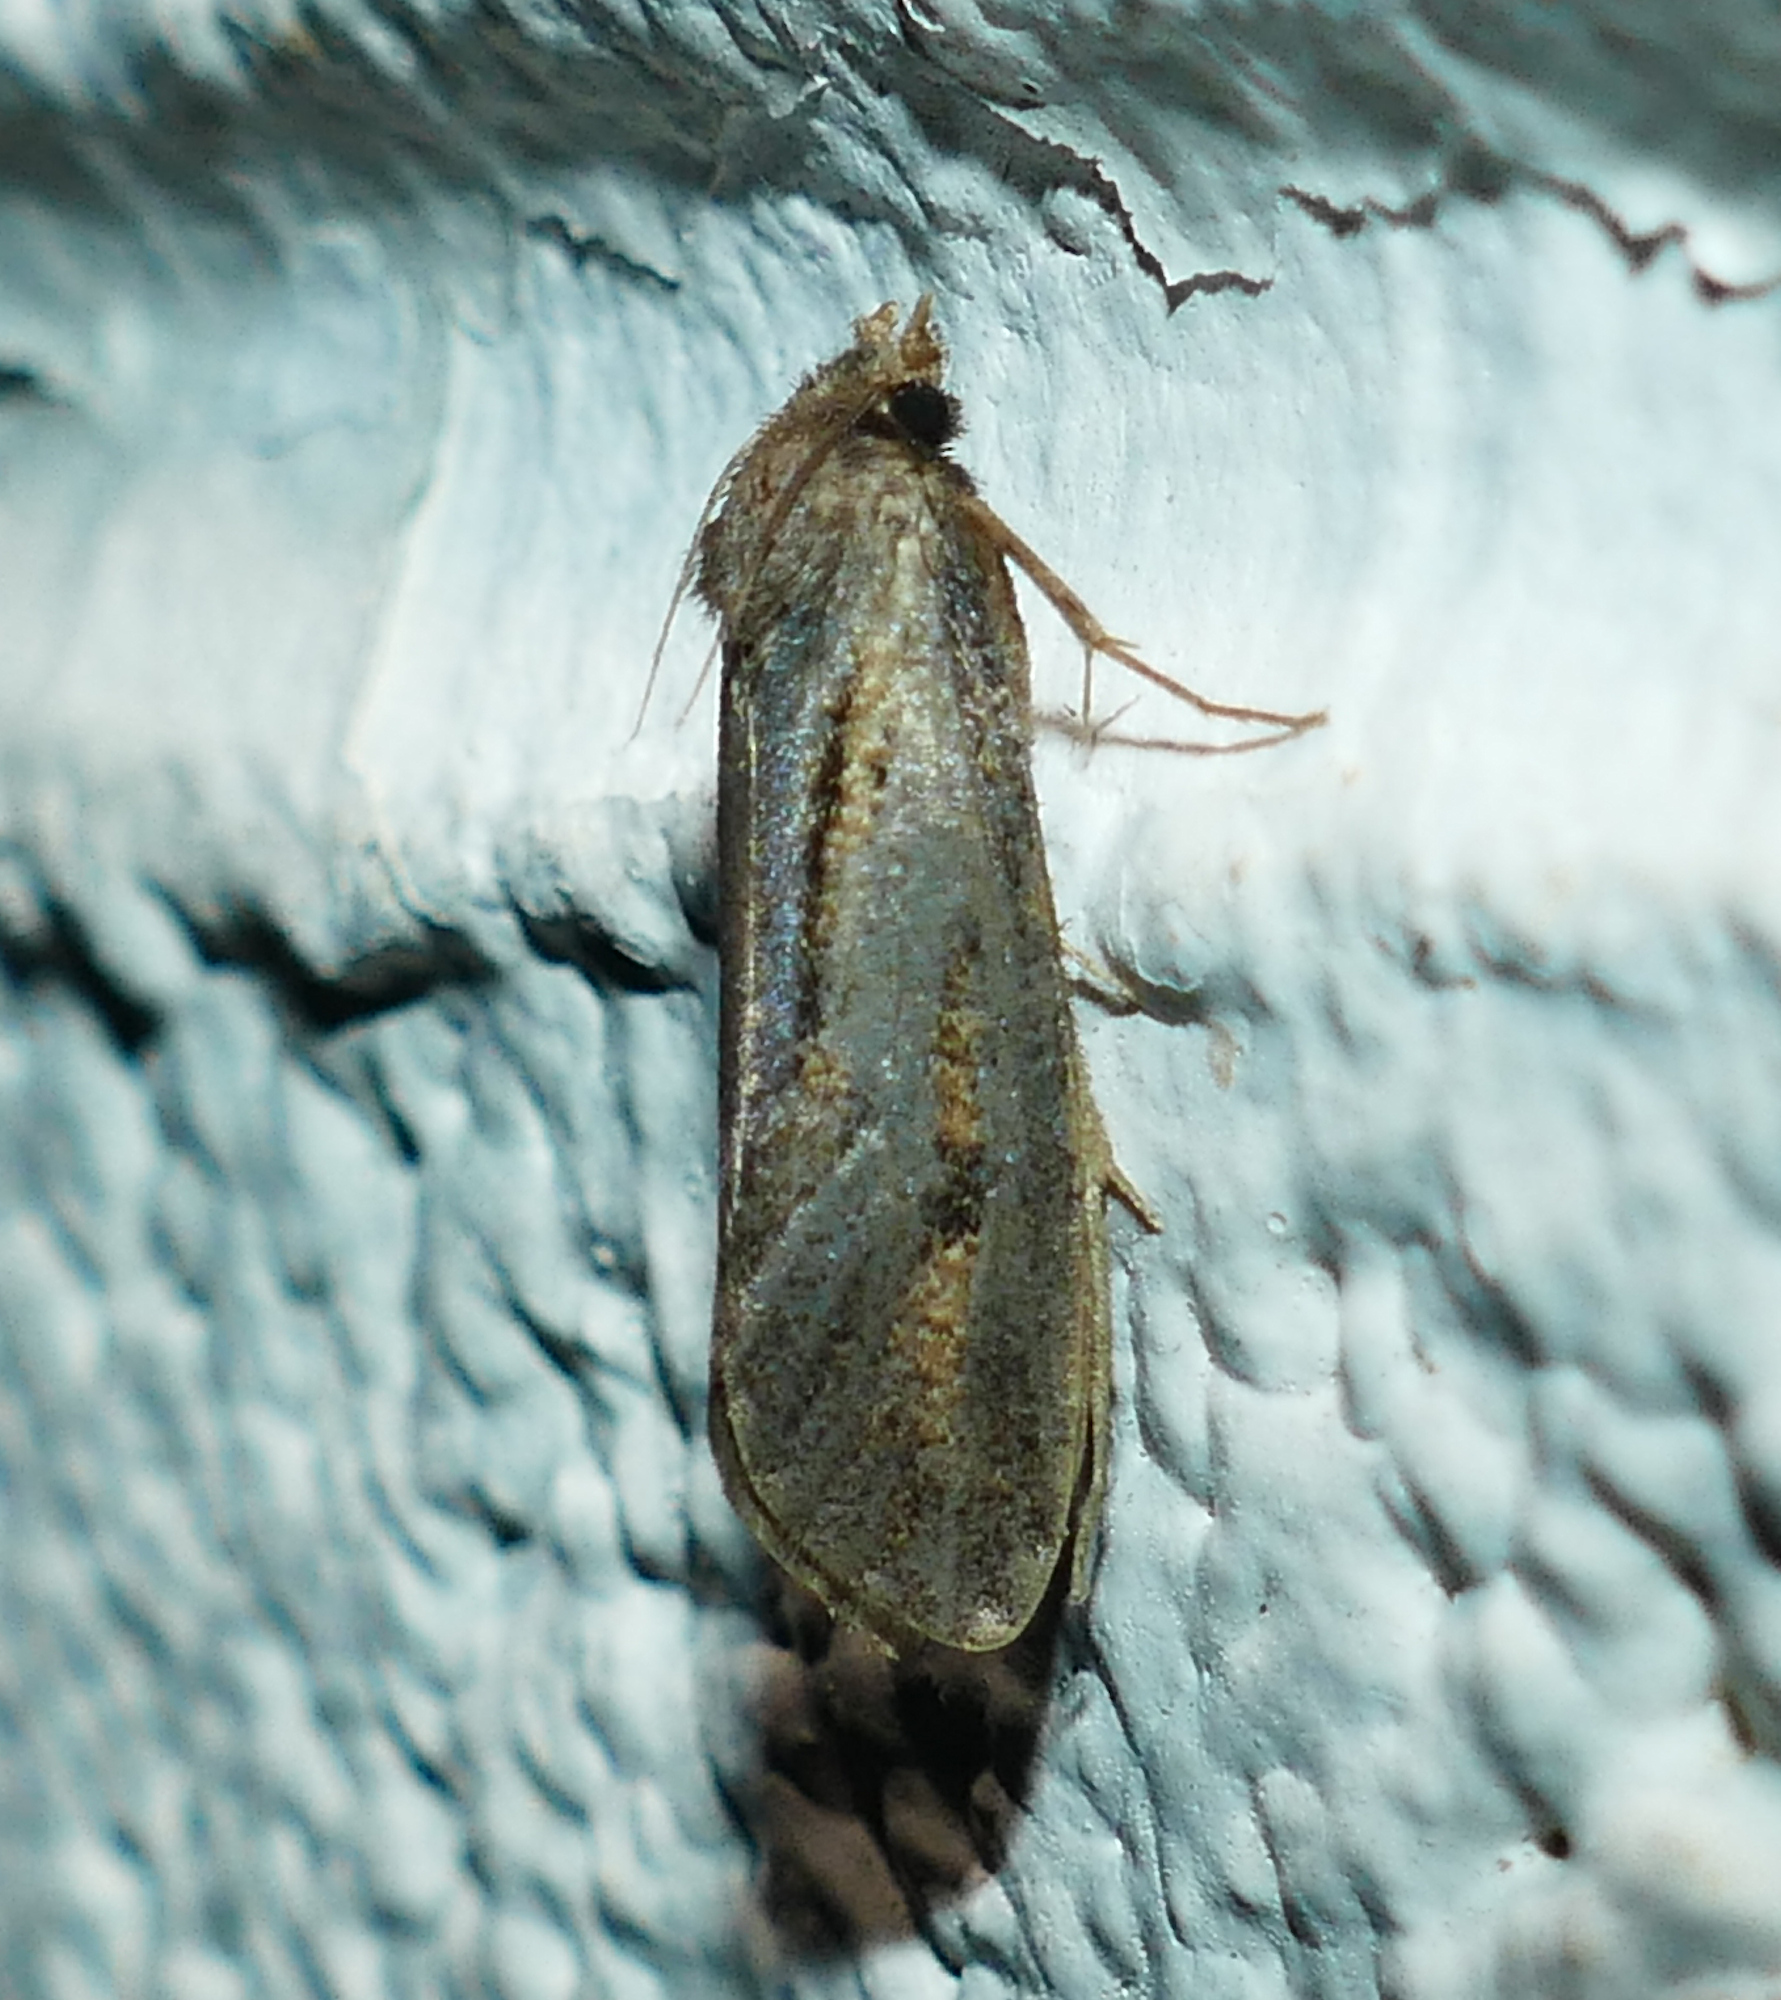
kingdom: Animalia
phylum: Arthropoda
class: Insecta
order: Lepidoptera
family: Tineidae
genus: Acrolophus
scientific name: Acrolophus popeanella
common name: Clemens' grass tubeworm moth
